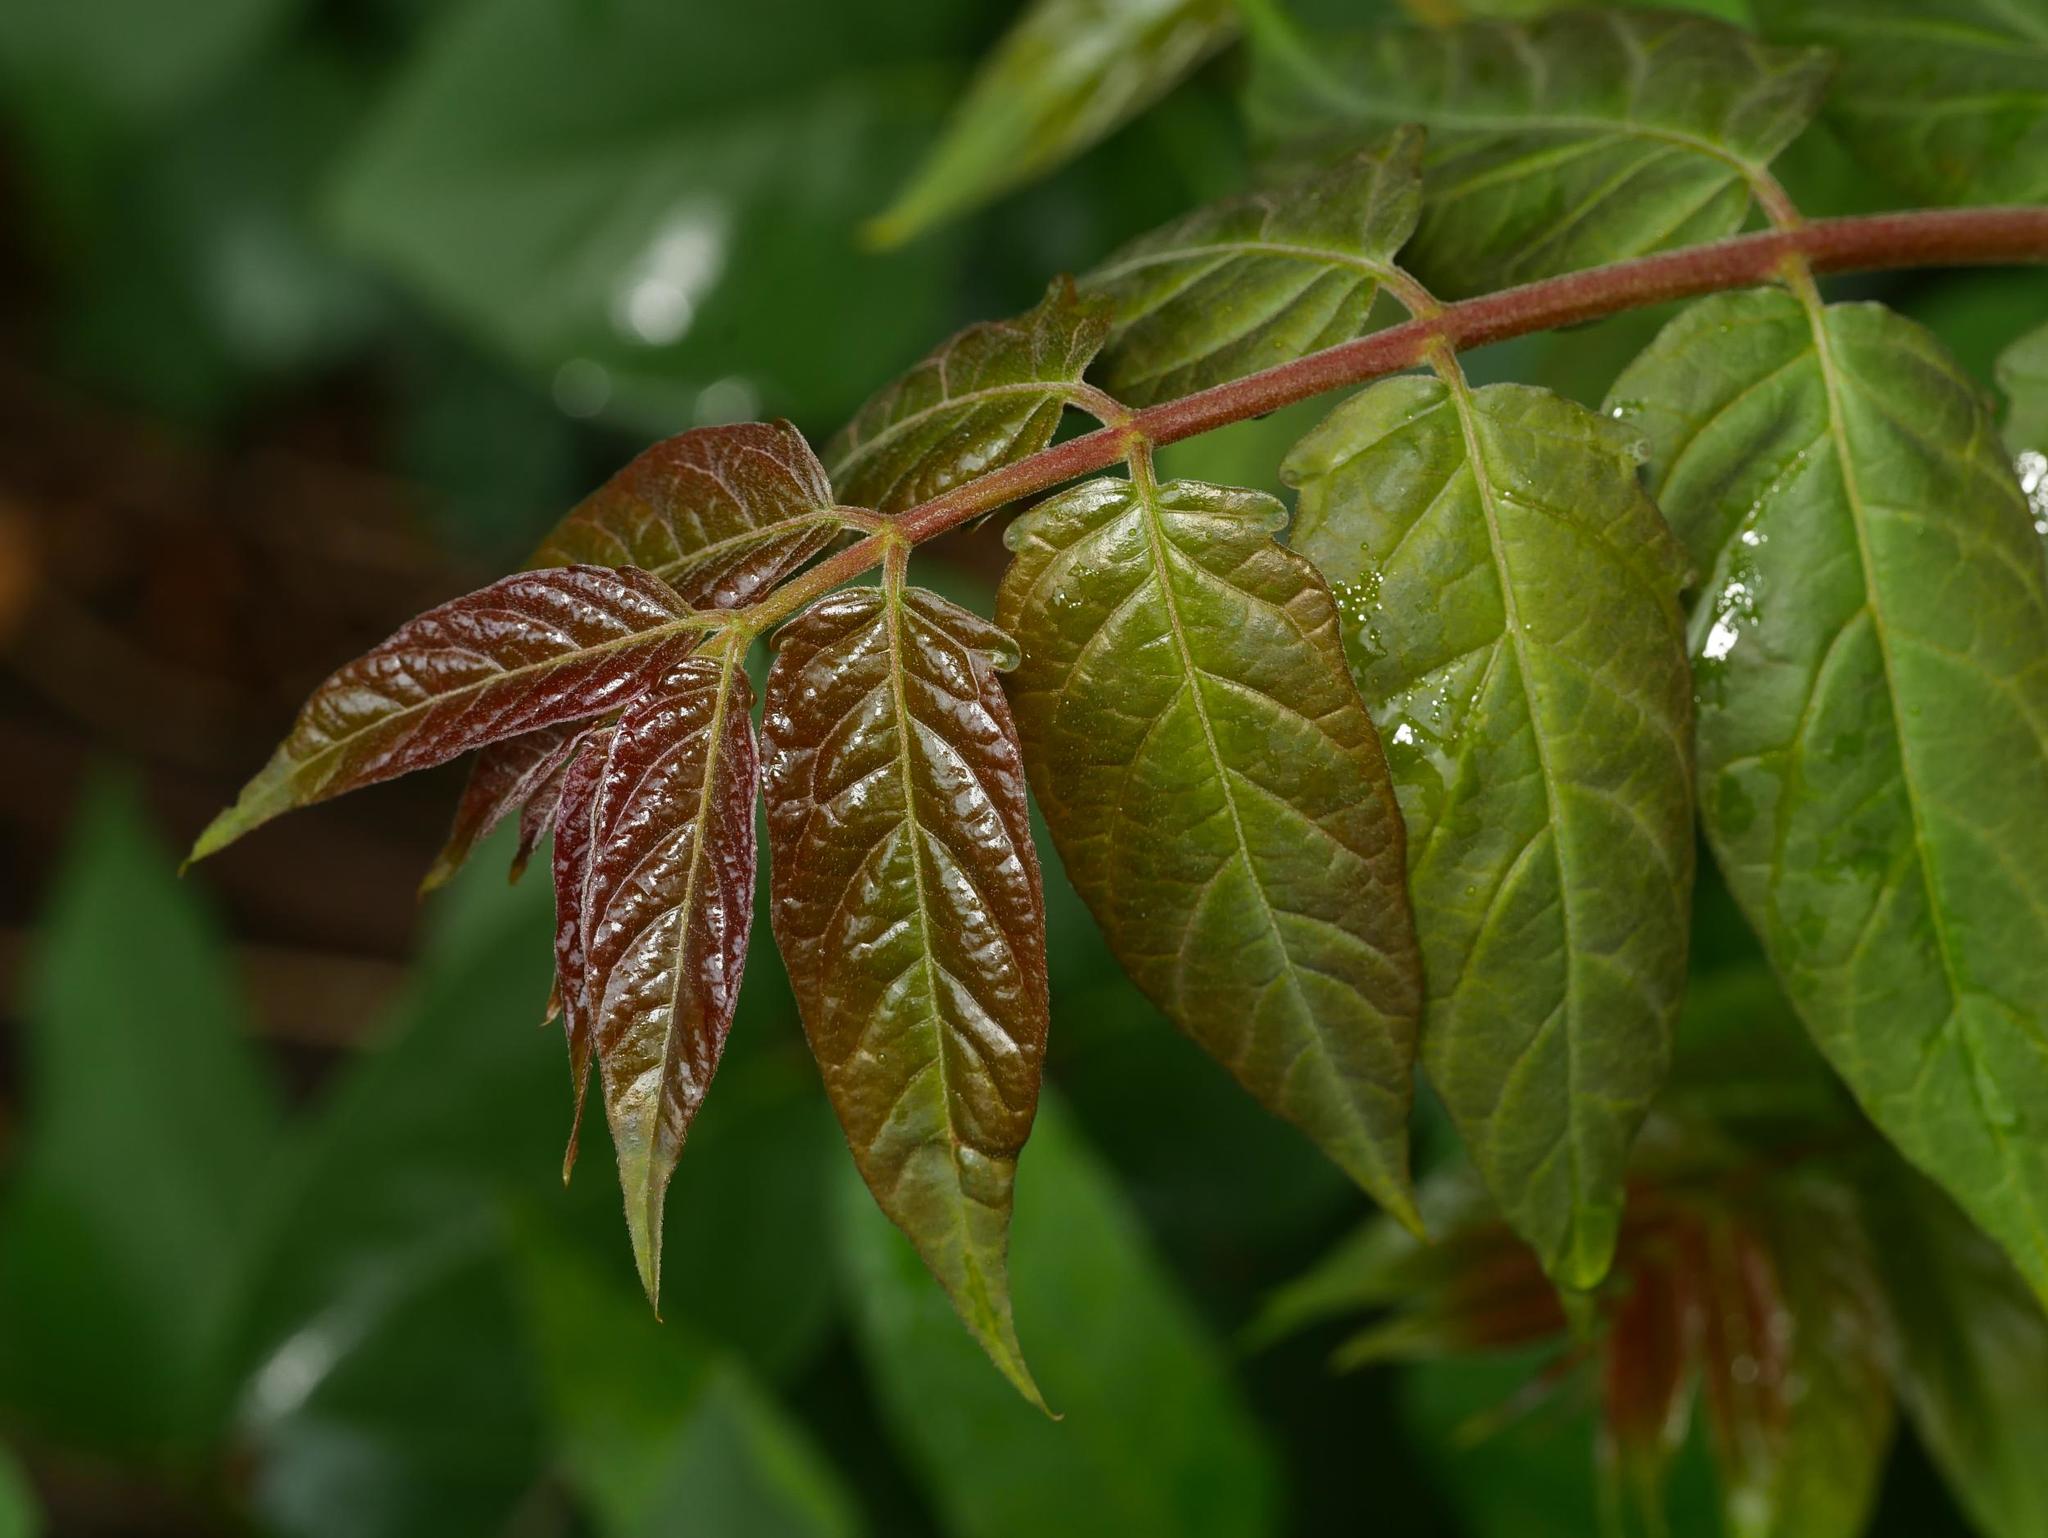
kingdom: Plantae
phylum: Tracheophyta
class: Magnoliopsida
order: Sapindales
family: Simaroubaceae
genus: Ailanthus
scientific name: Ailanthus altissima
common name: Tree-of-heaven
